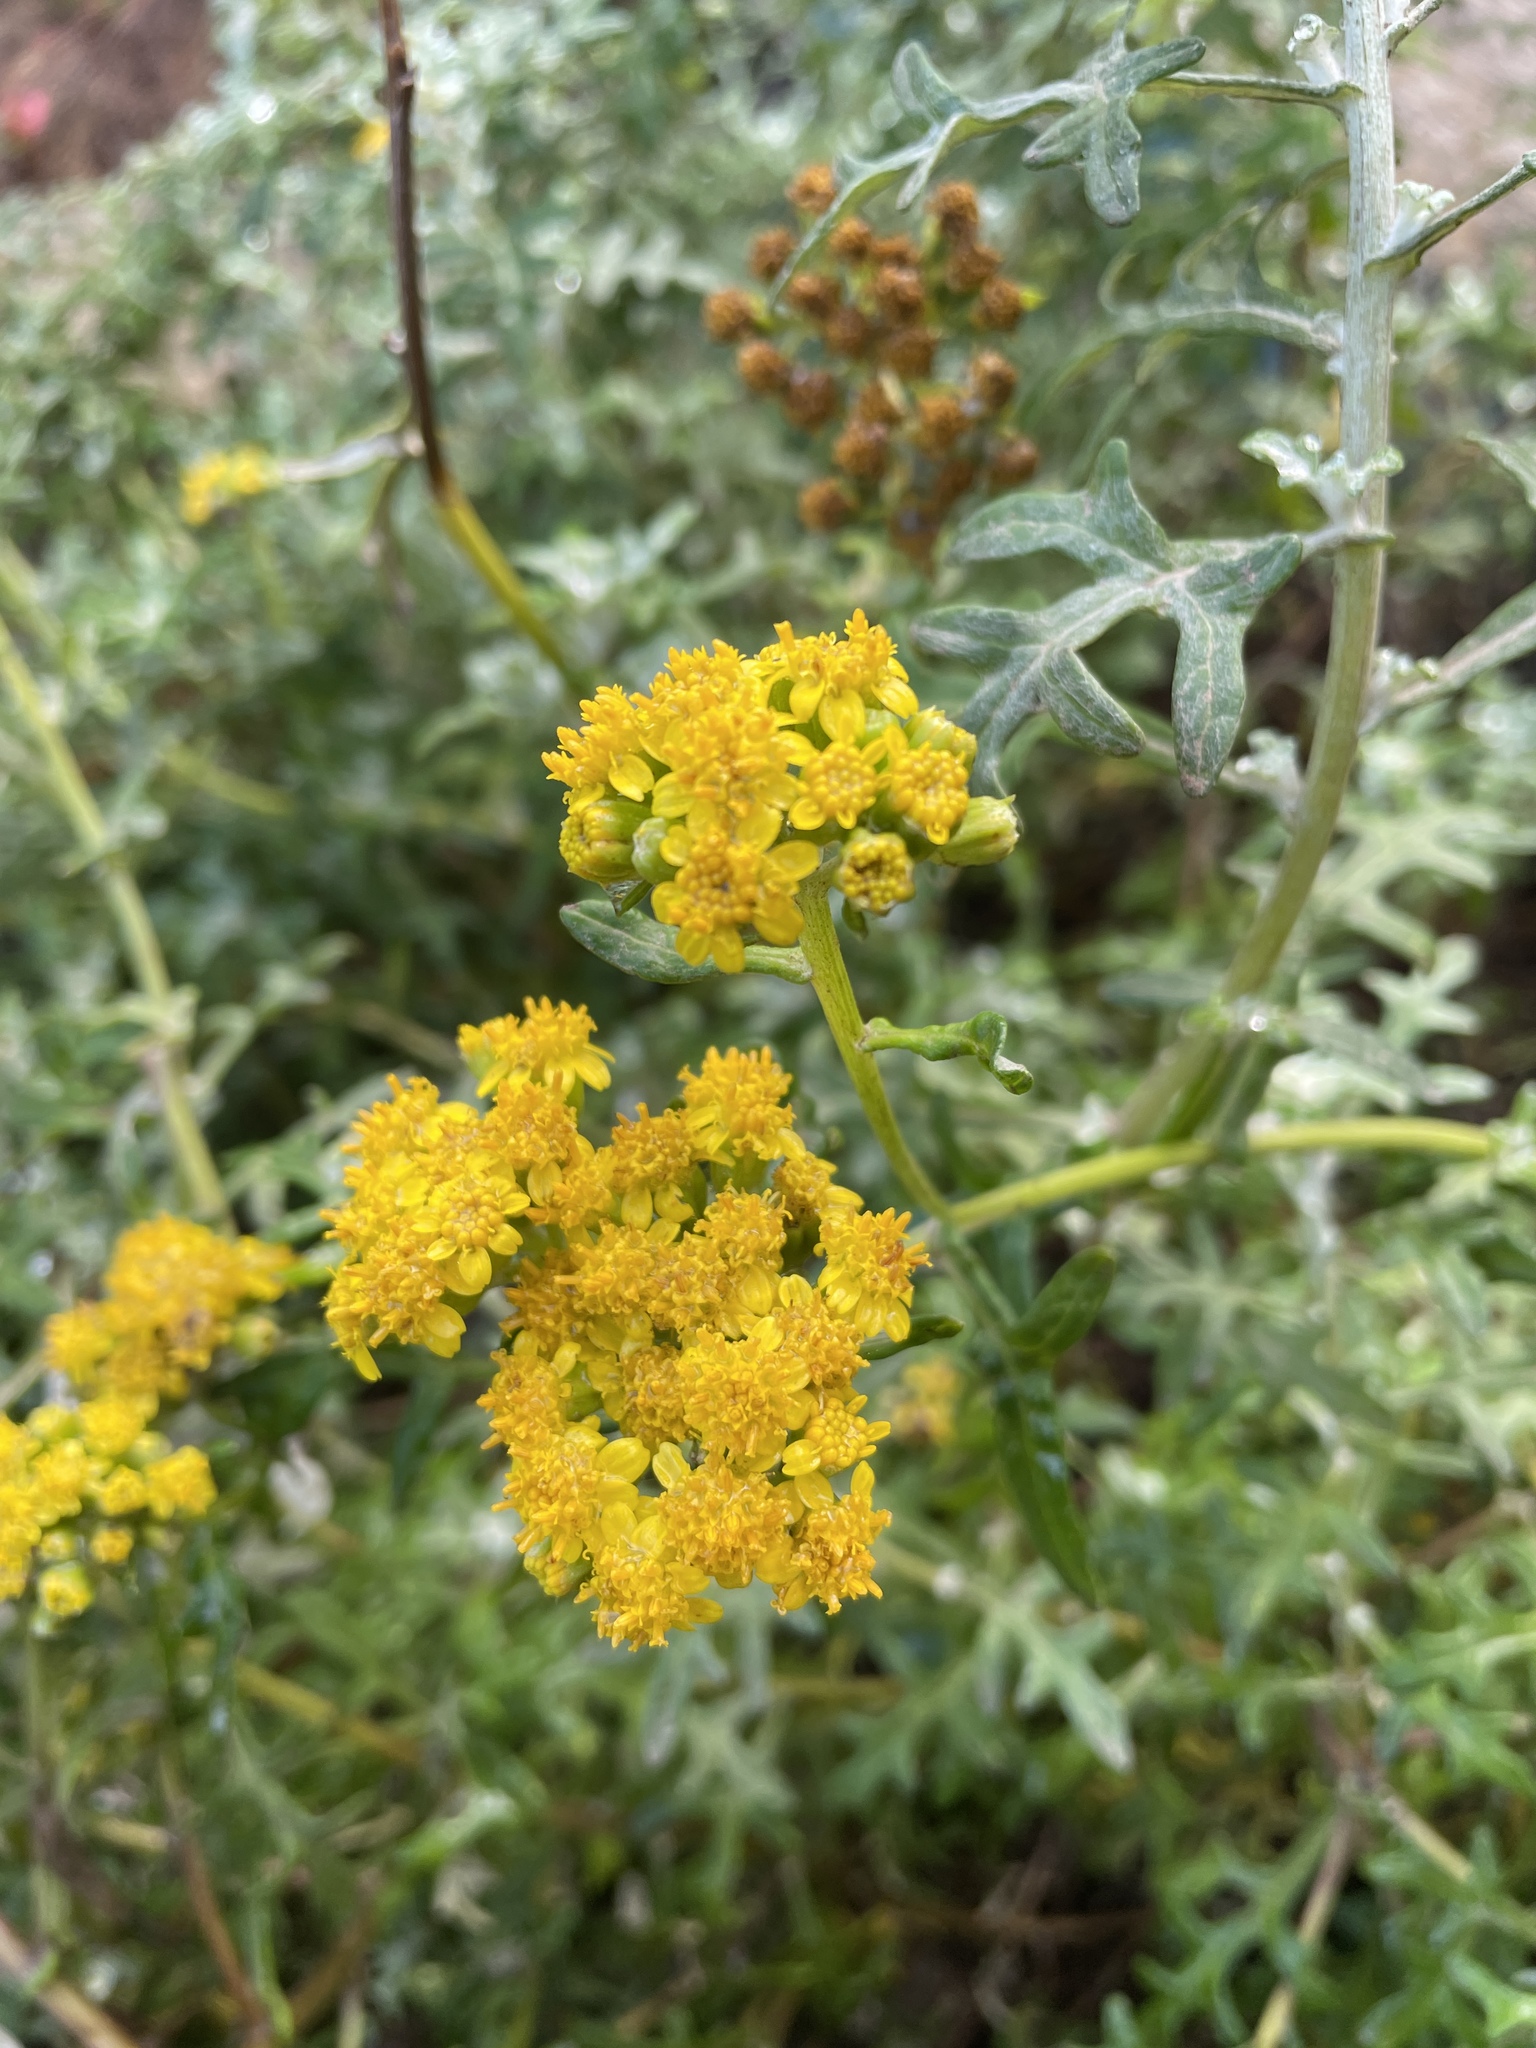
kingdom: Plantae
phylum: Tracheophyta
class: Magnoliopsida
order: Asterales
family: Asteraceae
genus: Eriophyllum
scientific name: Eriophyllum staechadifolium
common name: Lizardtail
